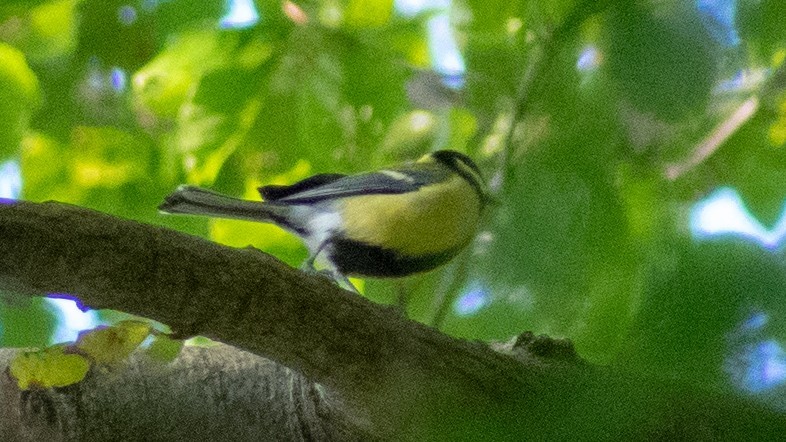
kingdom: Animalia
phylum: Chordata
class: Aves
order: Passeriformes
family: Paridae
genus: Parus
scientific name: Parus major
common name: Great tit
